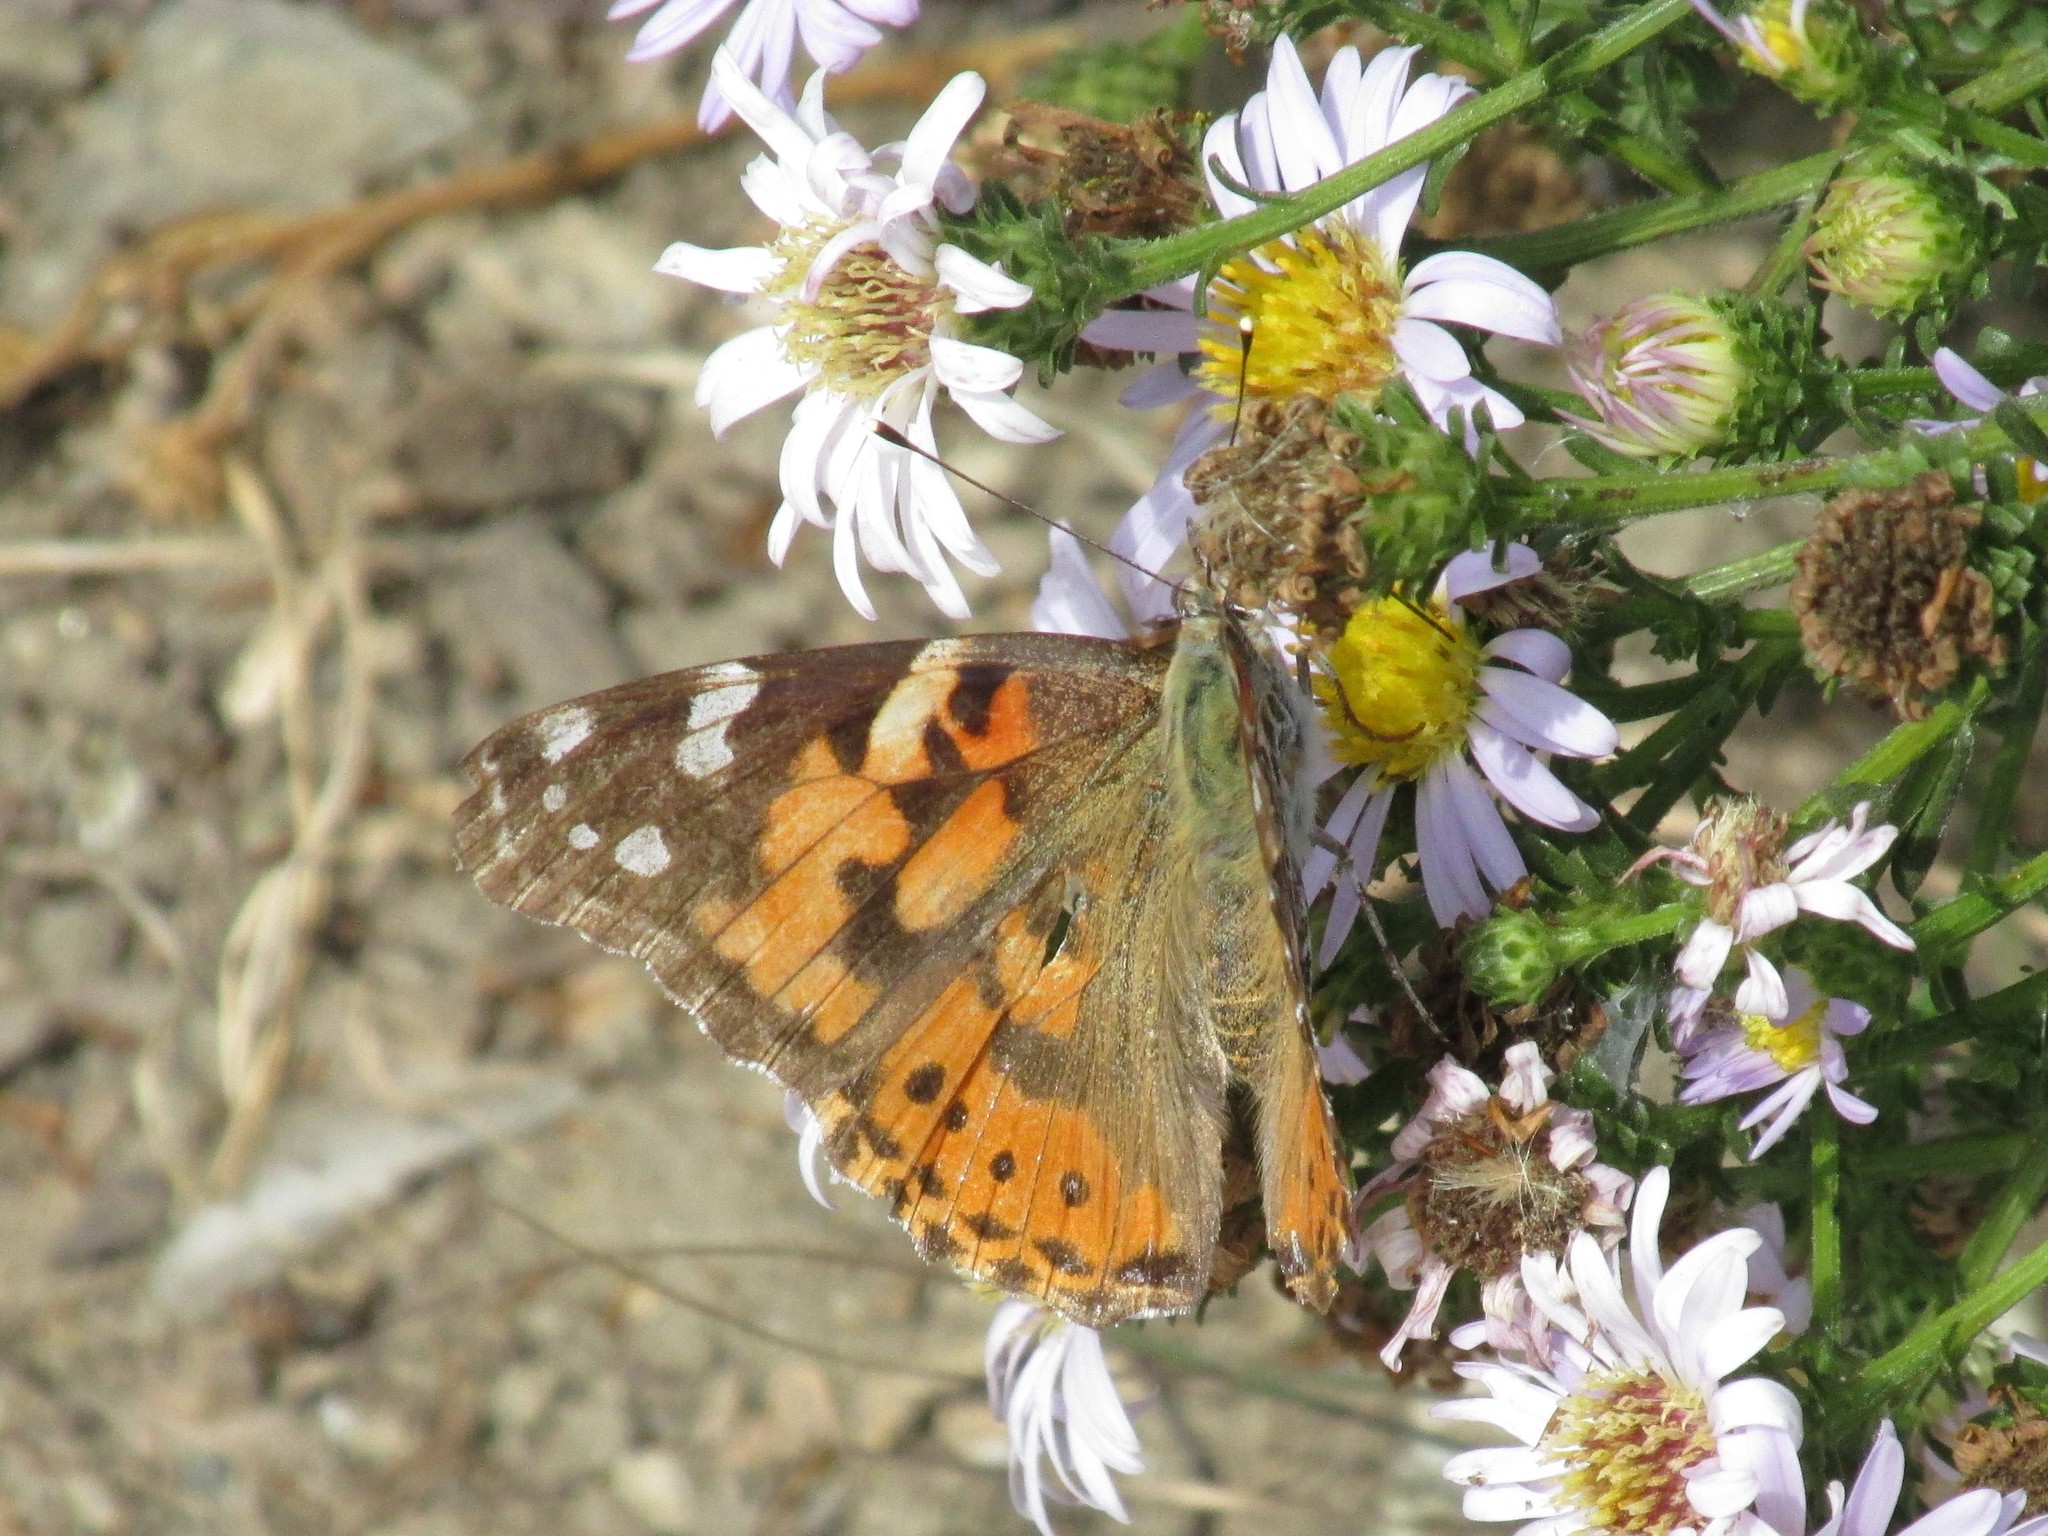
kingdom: Animalia
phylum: Arthropoda
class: Insecta
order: Lepidoptera
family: Nymphalidae
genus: Vanessa
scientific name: Vanessa cardui
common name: Painted lady
